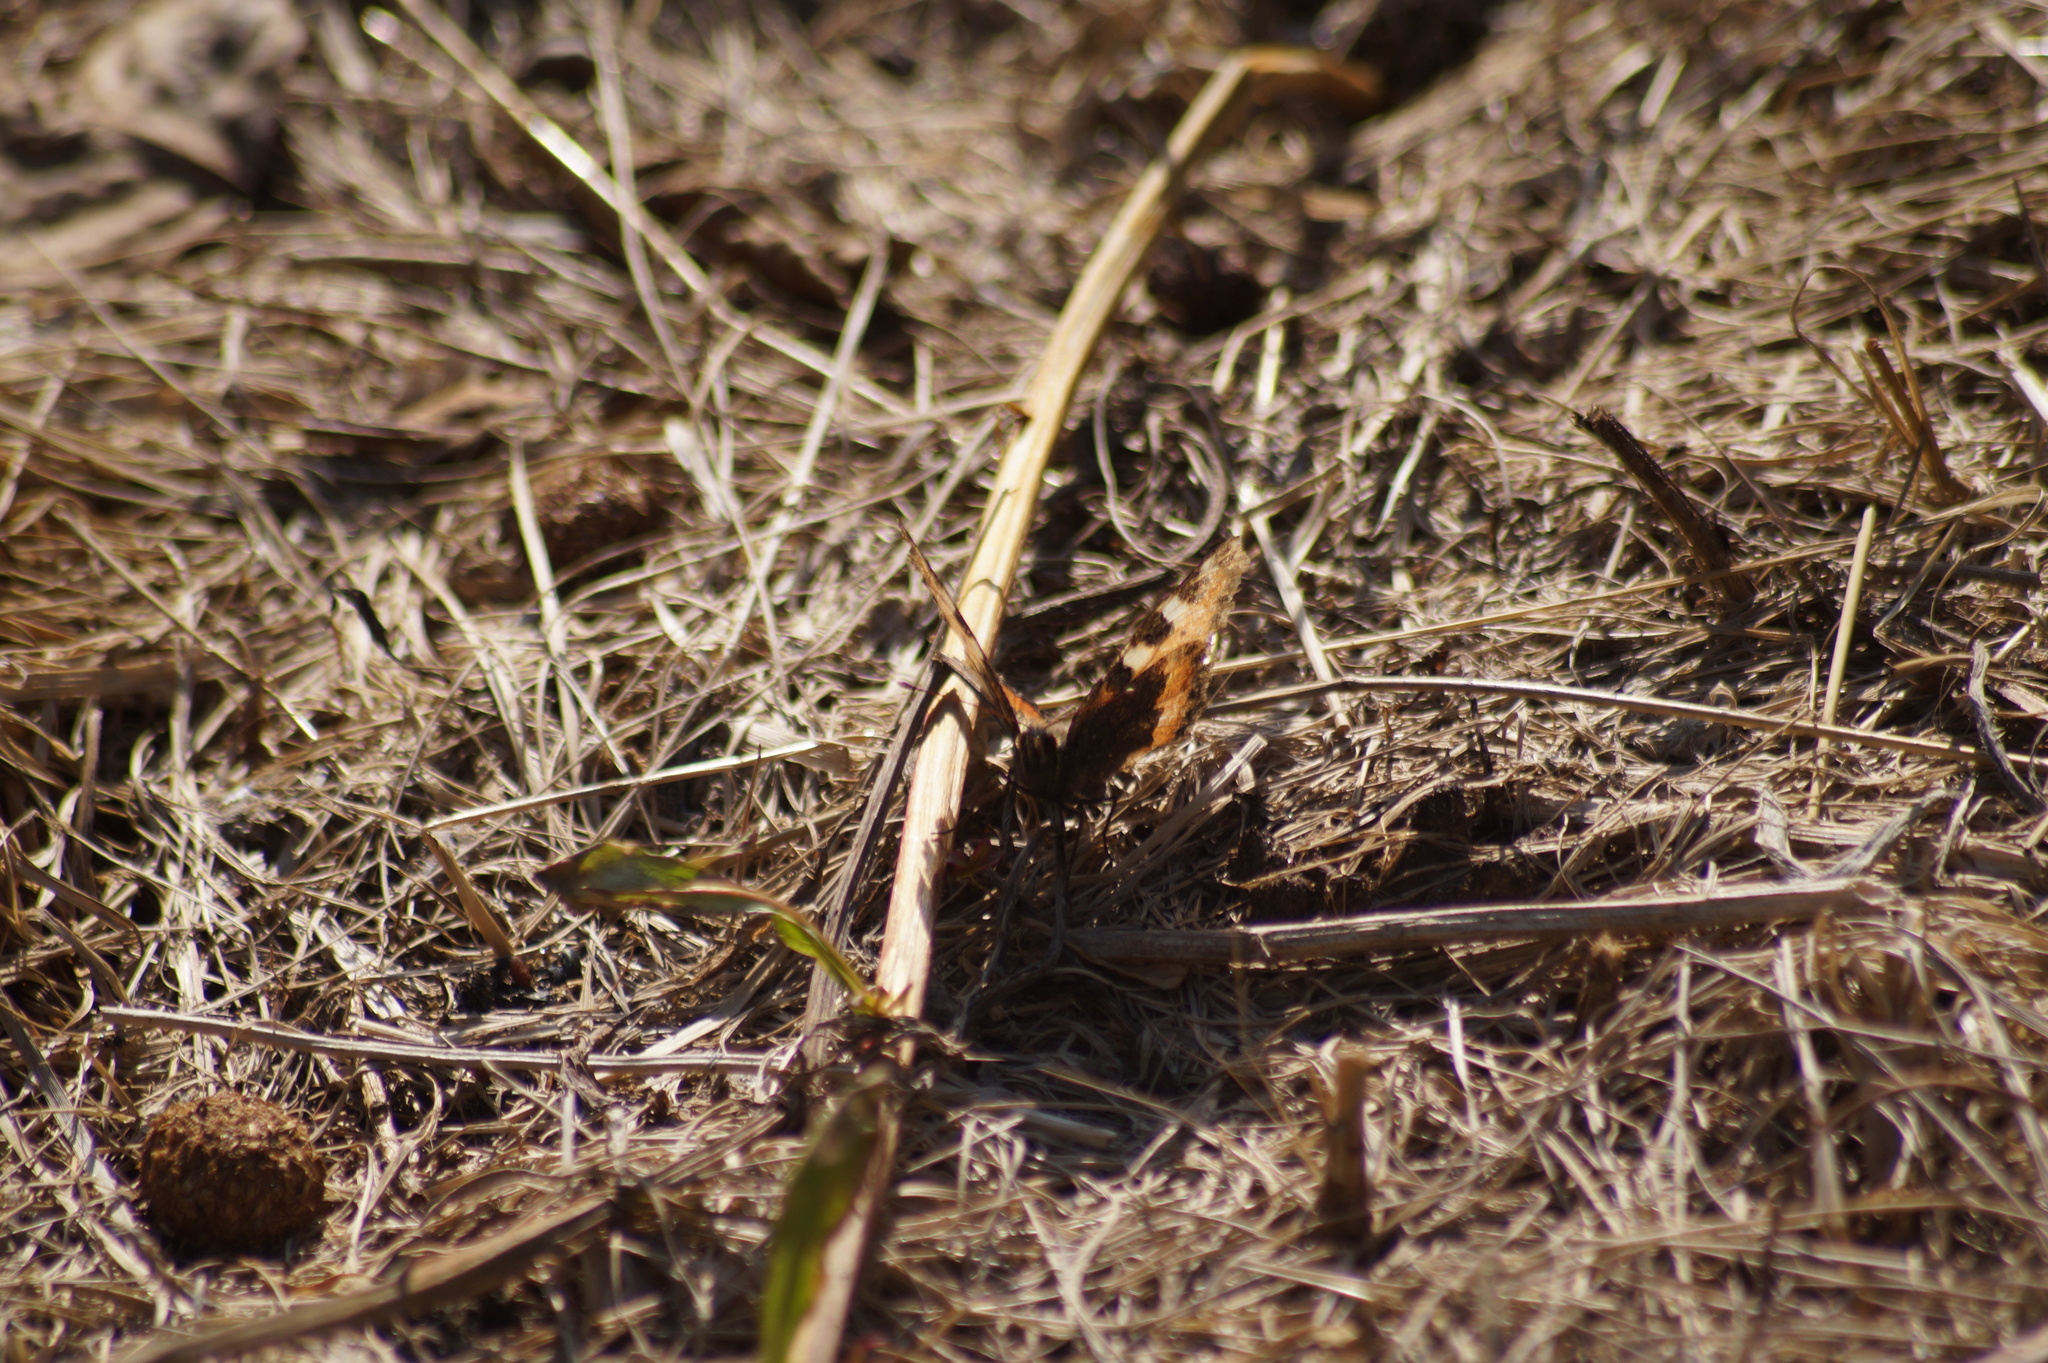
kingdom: Animalia
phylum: Arthropoda
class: Insecta
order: Lepidoptera
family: Nymphalidae
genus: Aglais
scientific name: Aglais urticae
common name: Small tortoiseshell
